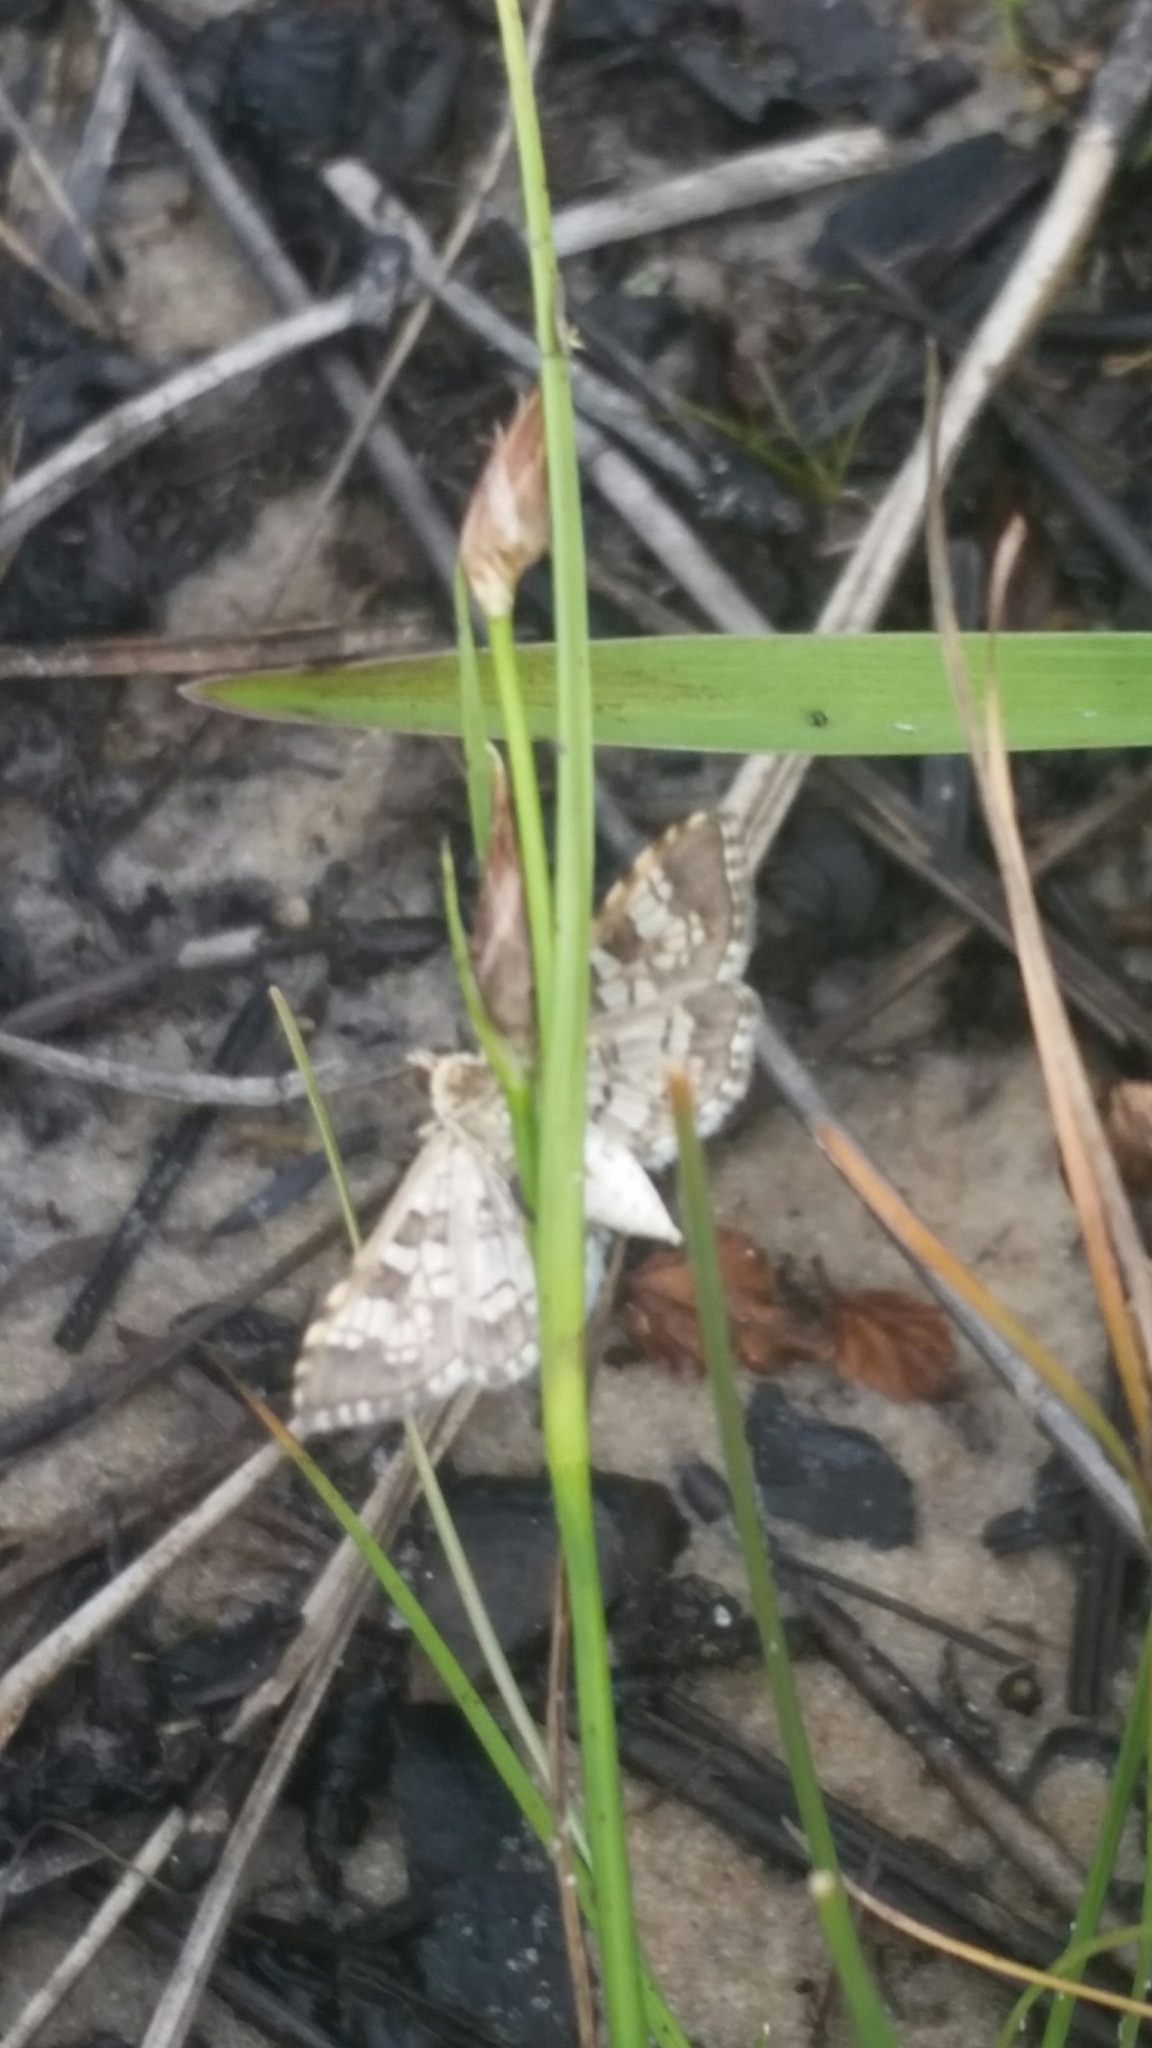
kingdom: Animalia
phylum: Arthropoda
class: Insecta
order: Lepidoptera
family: Crambidae
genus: Samea
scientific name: Samea ecclesialis
